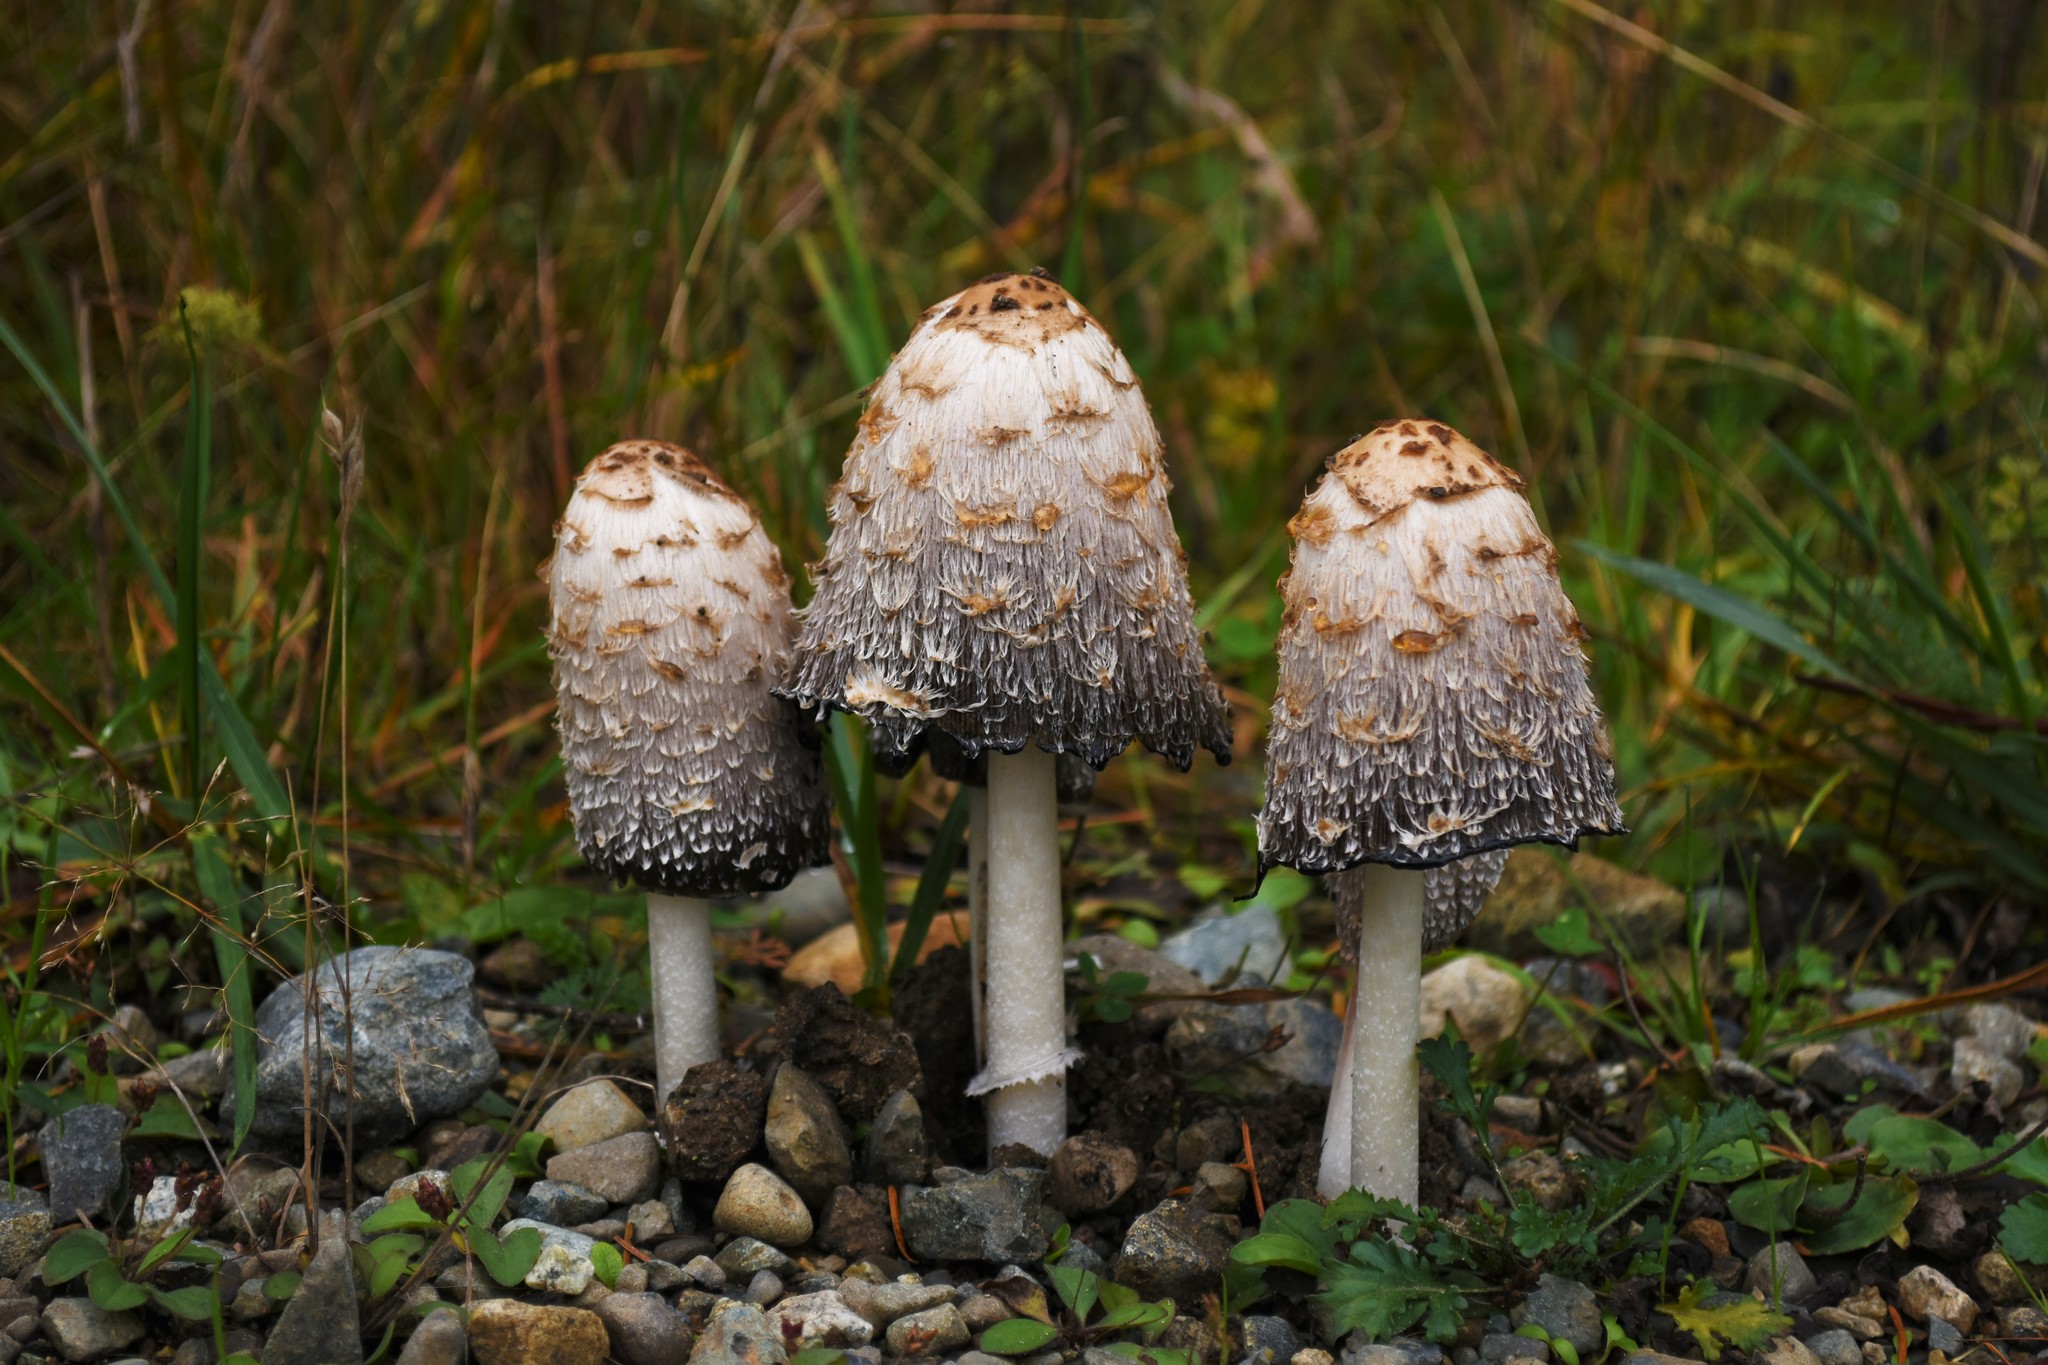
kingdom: Fungi
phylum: Basidiomycota
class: Agaricomycetes
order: Agaricales
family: Agaricaceae
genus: Coprinus
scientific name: Coprinus comatus
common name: Lawyer's wig
